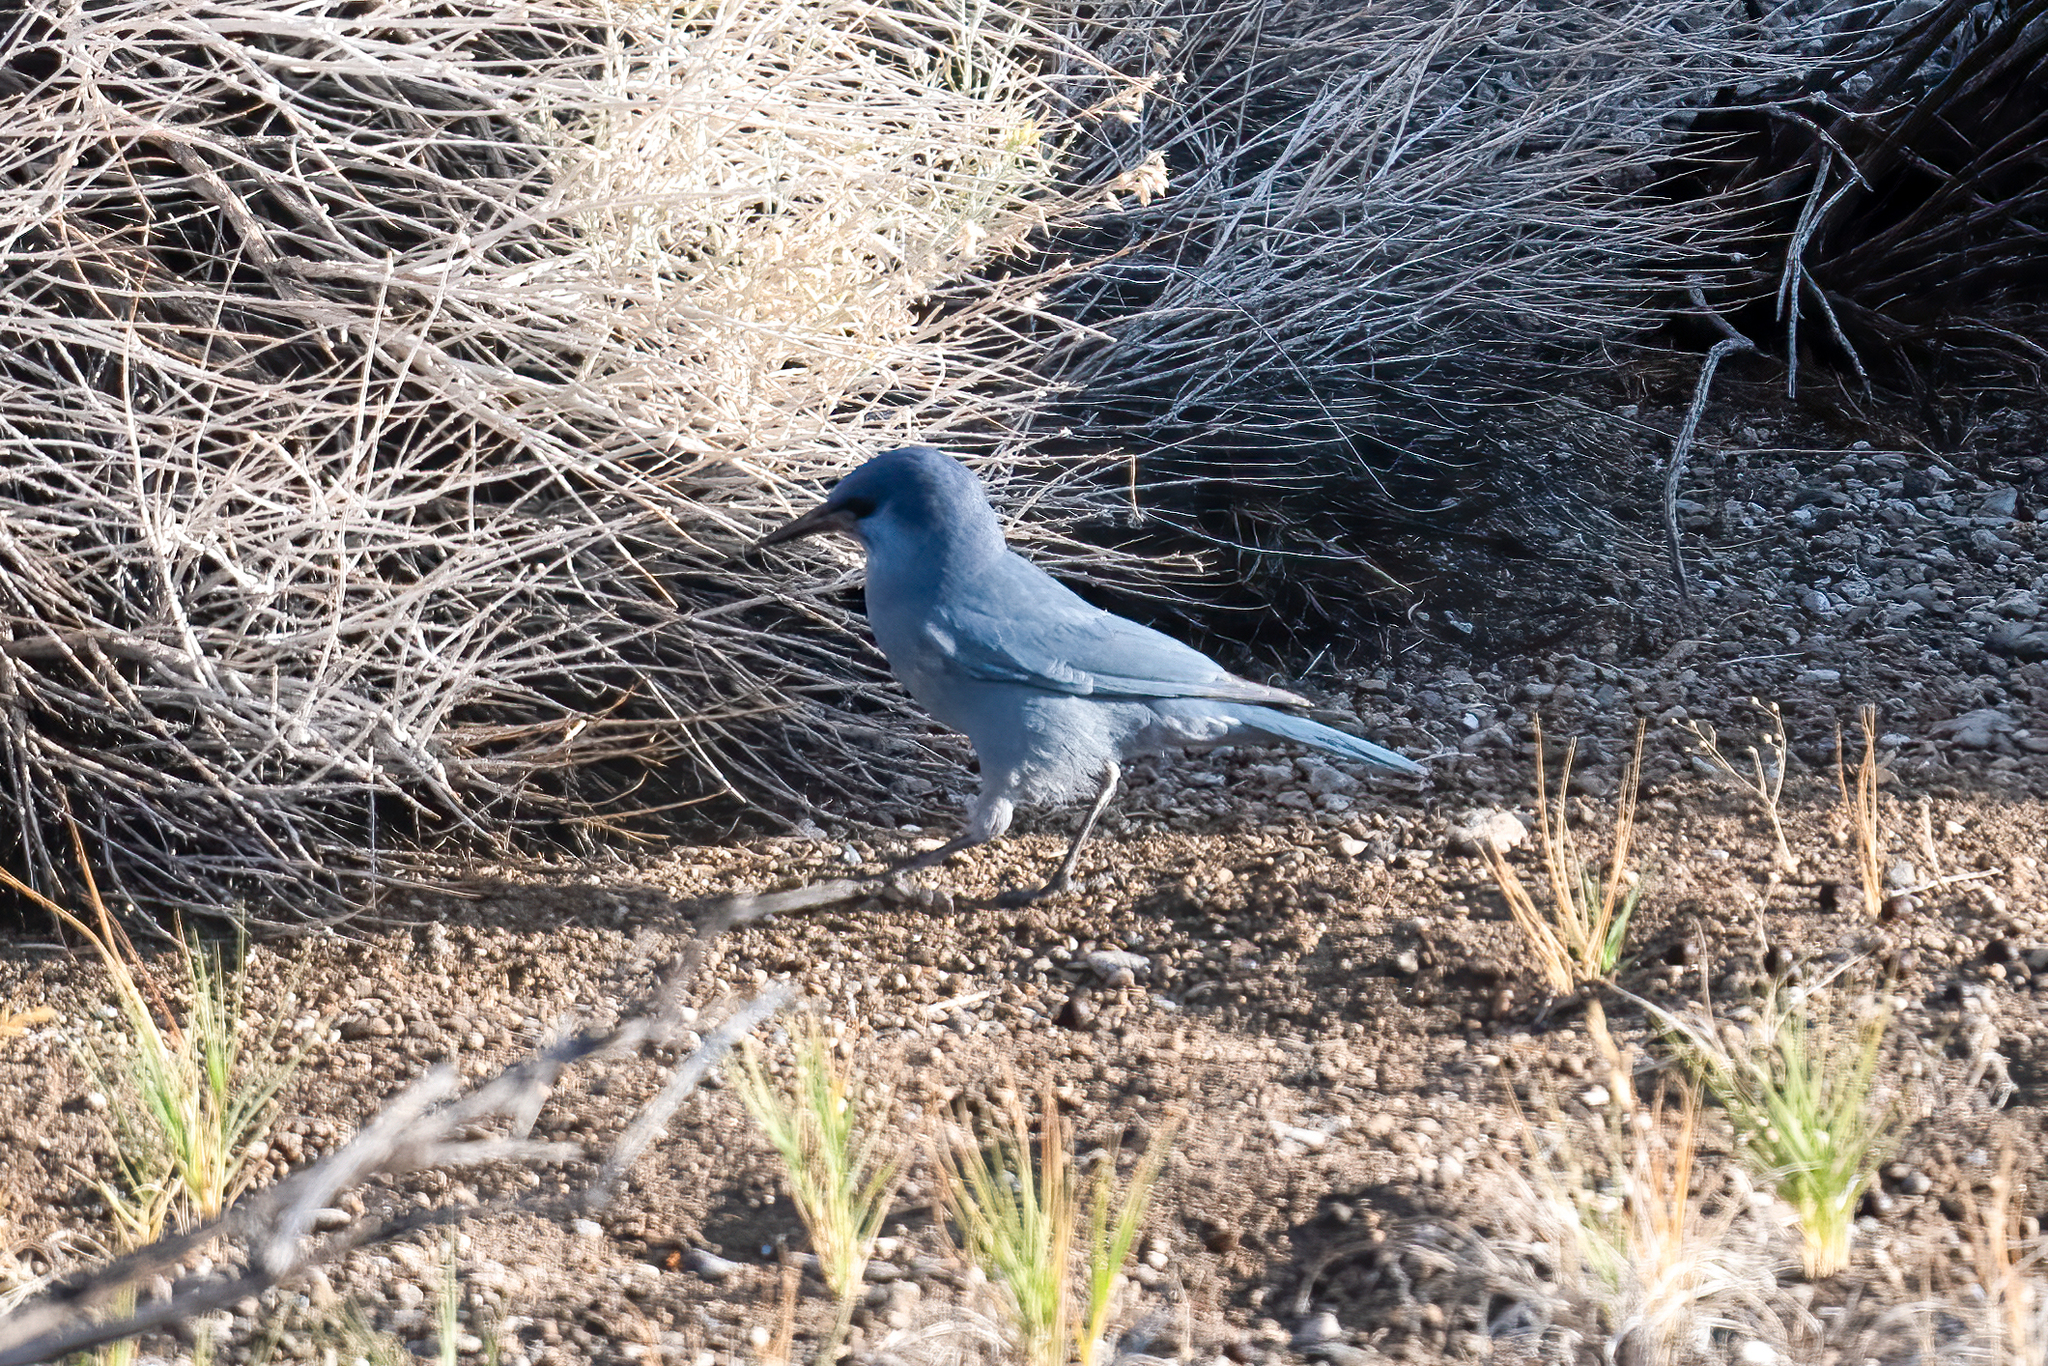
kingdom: Animalia
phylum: Chordata
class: Aves
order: Passeriformes
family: Corvidae
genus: Gymnorhinus
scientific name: Gymnorhinus cyanocephalus
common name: Pinyon jay
